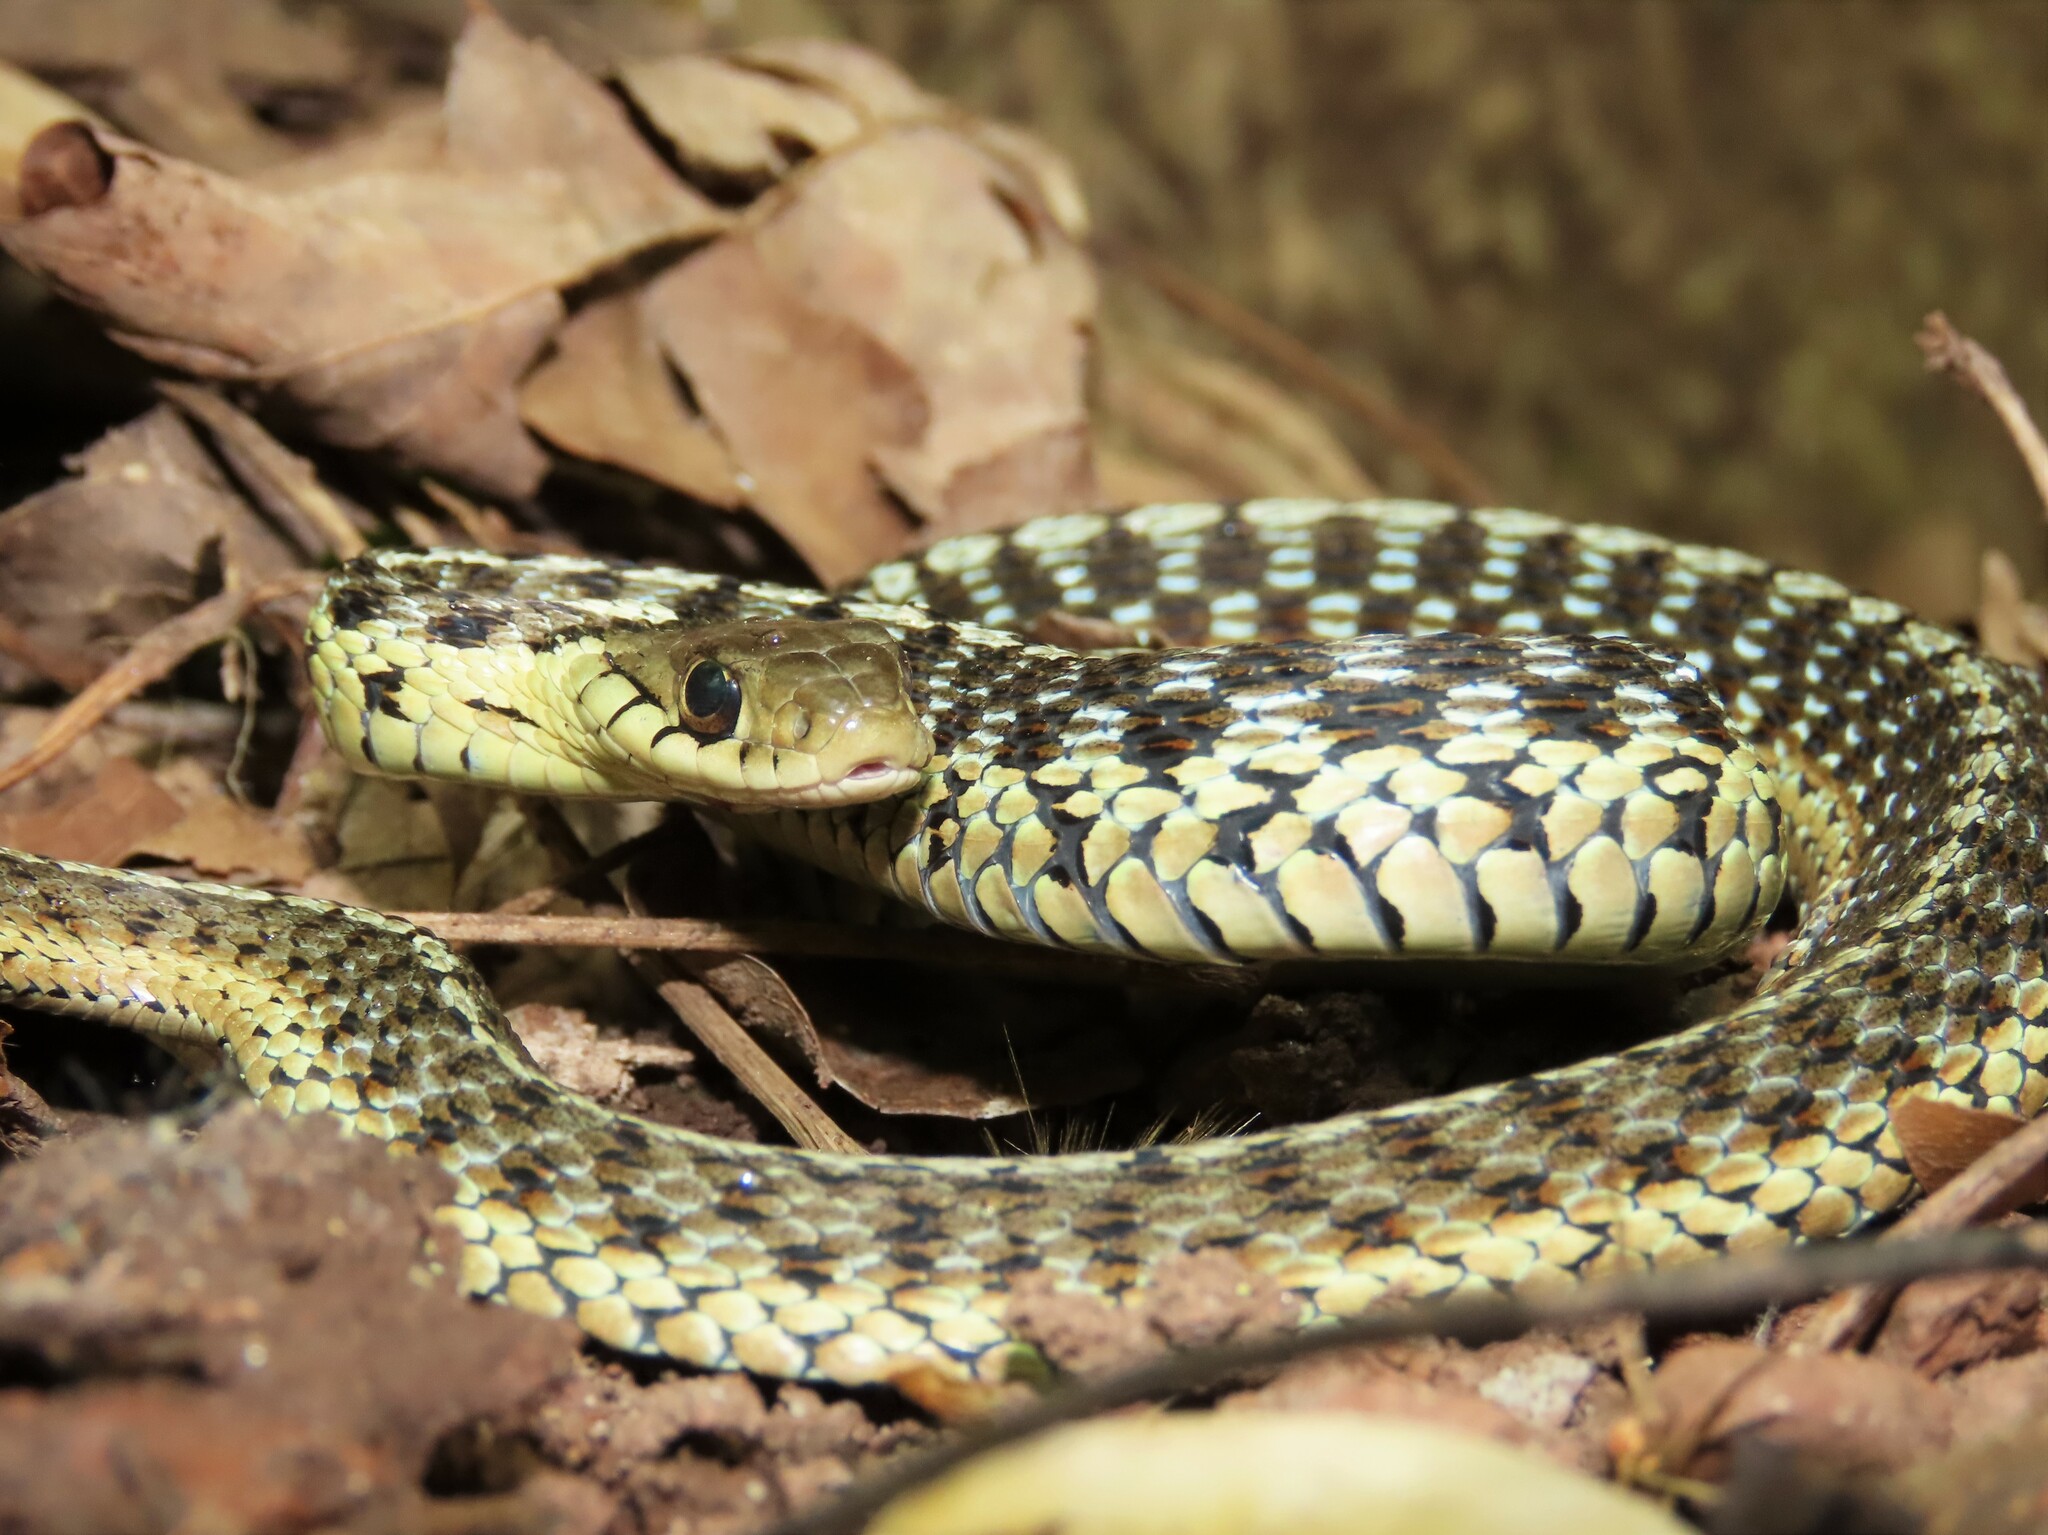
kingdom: Animalia
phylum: Chordata
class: Squamata
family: Colubridae
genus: Thamnophis
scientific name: Thamnophis sirtalis
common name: Common garter snake
